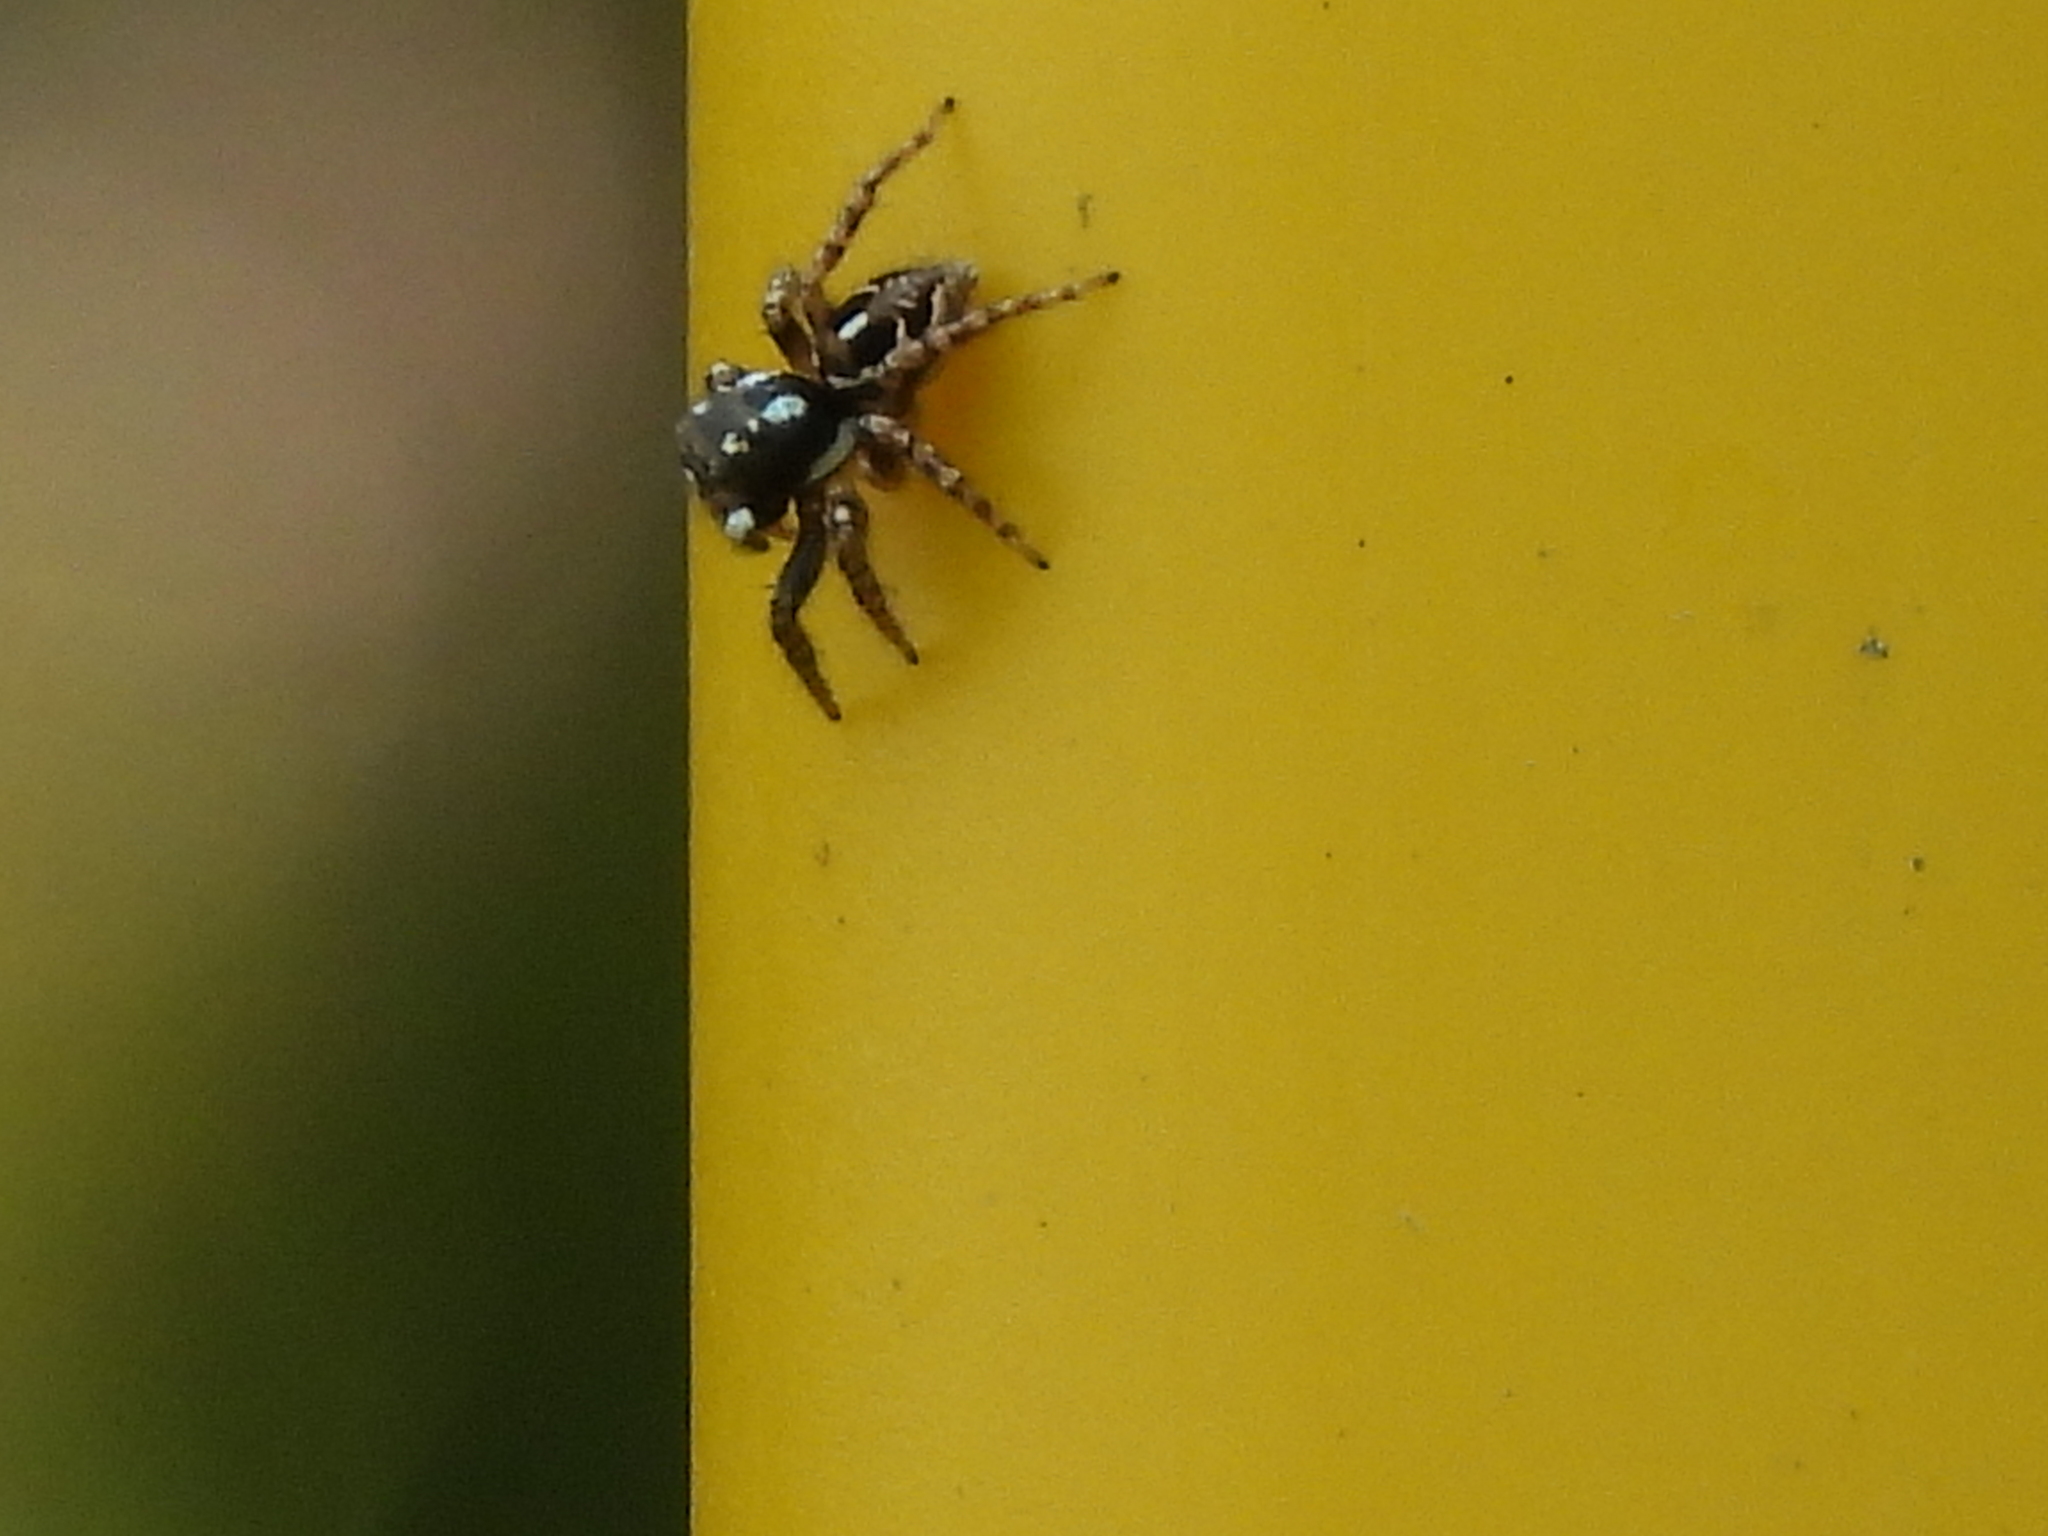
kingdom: Animalia
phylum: Arthropoda
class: Arachnida
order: Araneae
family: Salticidae
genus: Anasaitis
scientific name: Anasaitis canosa
